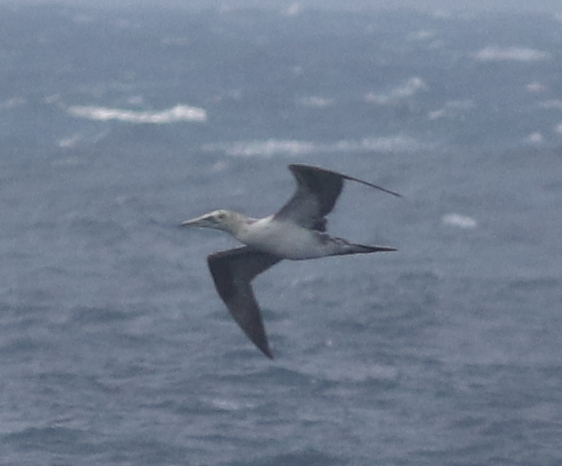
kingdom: Animalia
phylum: Chordata
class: Aves
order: Suliformes
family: Sulidae
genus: Morus
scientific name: Morus bassanus
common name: Northern gannet
